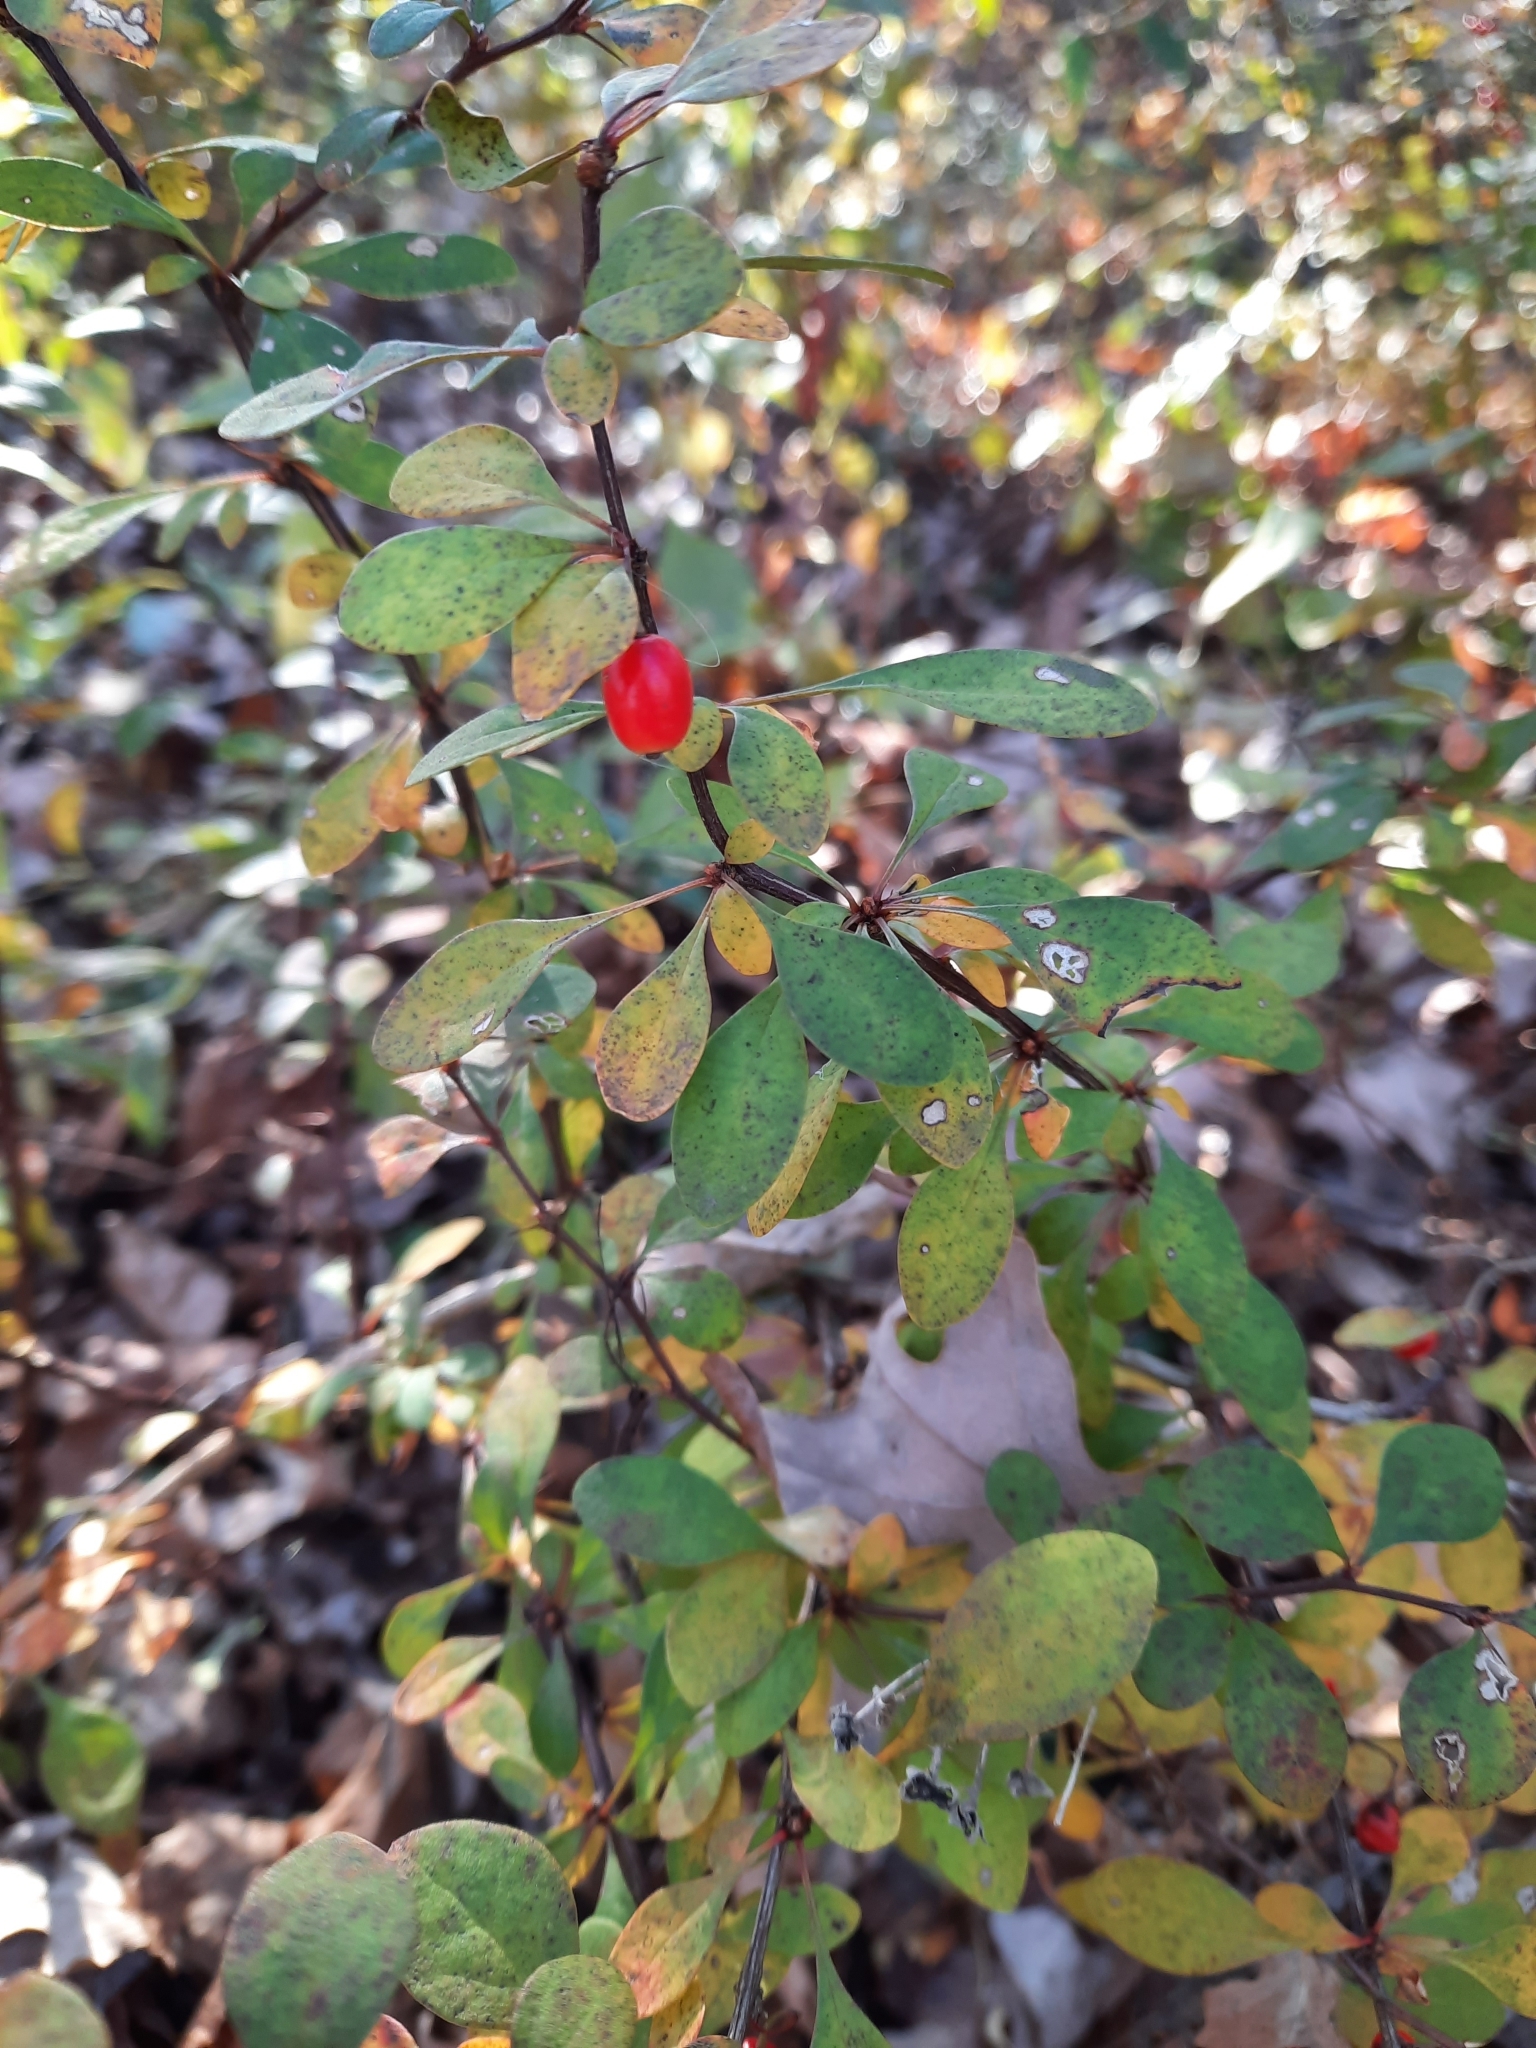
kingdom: Plantae
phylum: Tracheophyta
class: Magnoliopsida
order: Ranunculales
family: Berberidaceae
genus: Berberis
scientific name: Berberis thunbergii
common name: Japanese barberry
